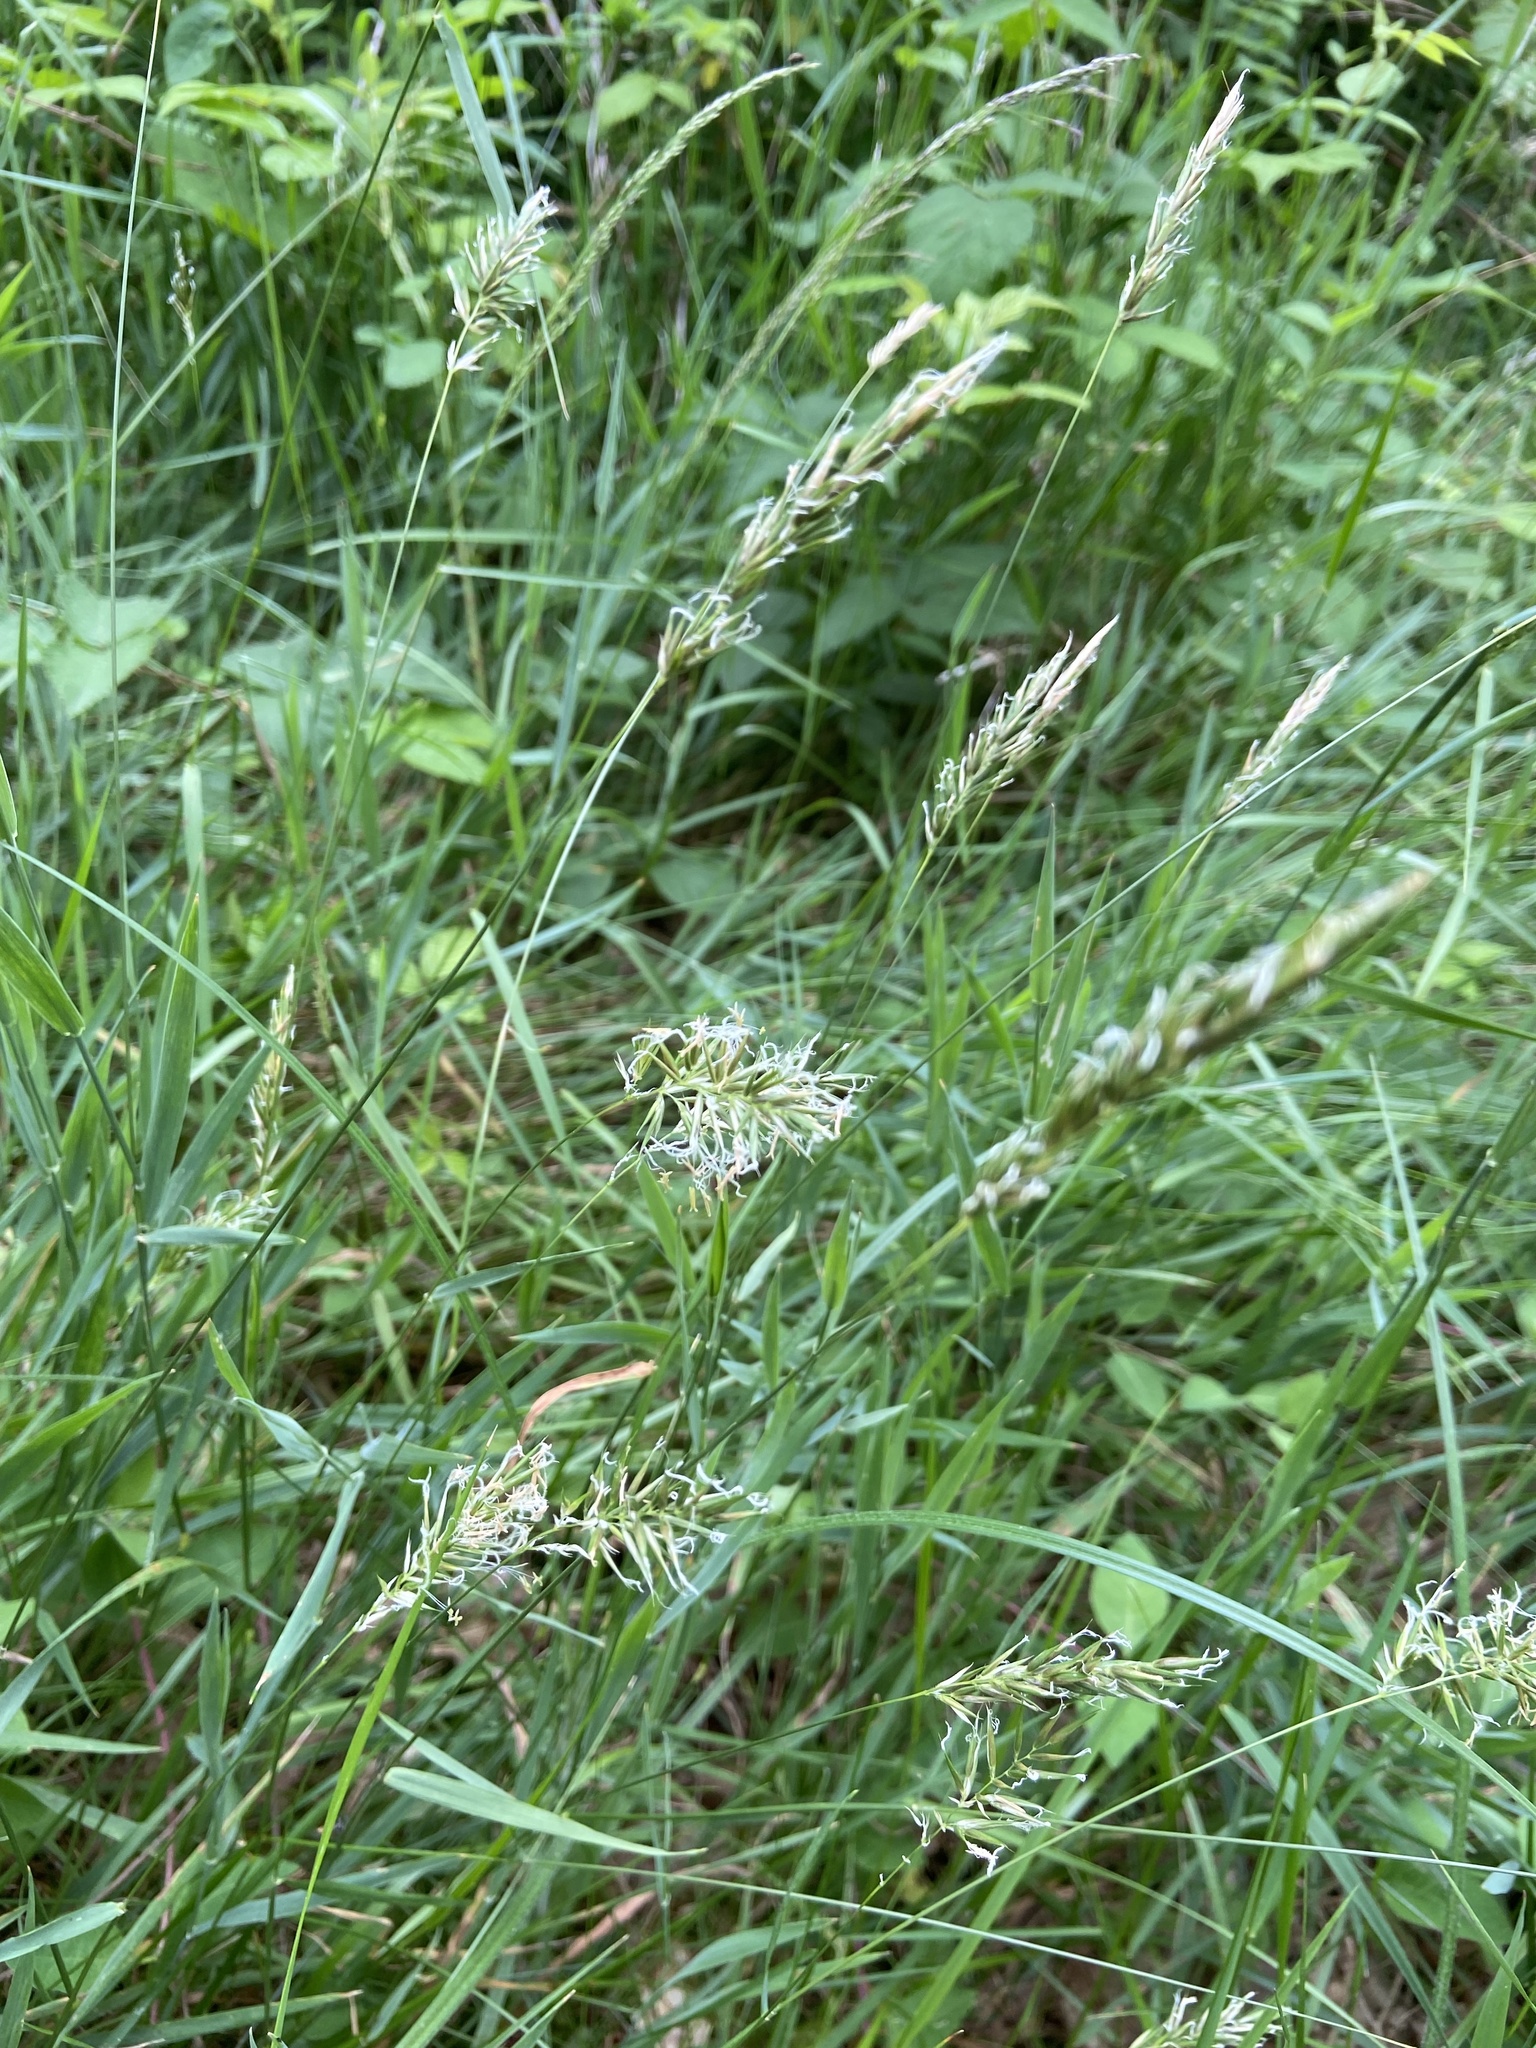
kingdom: Plantae
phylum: Tracheophyta
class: Liliopsida
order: Poales
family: Poaceae
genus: Anthoxanthum
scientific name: Anthoxanthum odoratum
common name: Sweet vernalgrass
